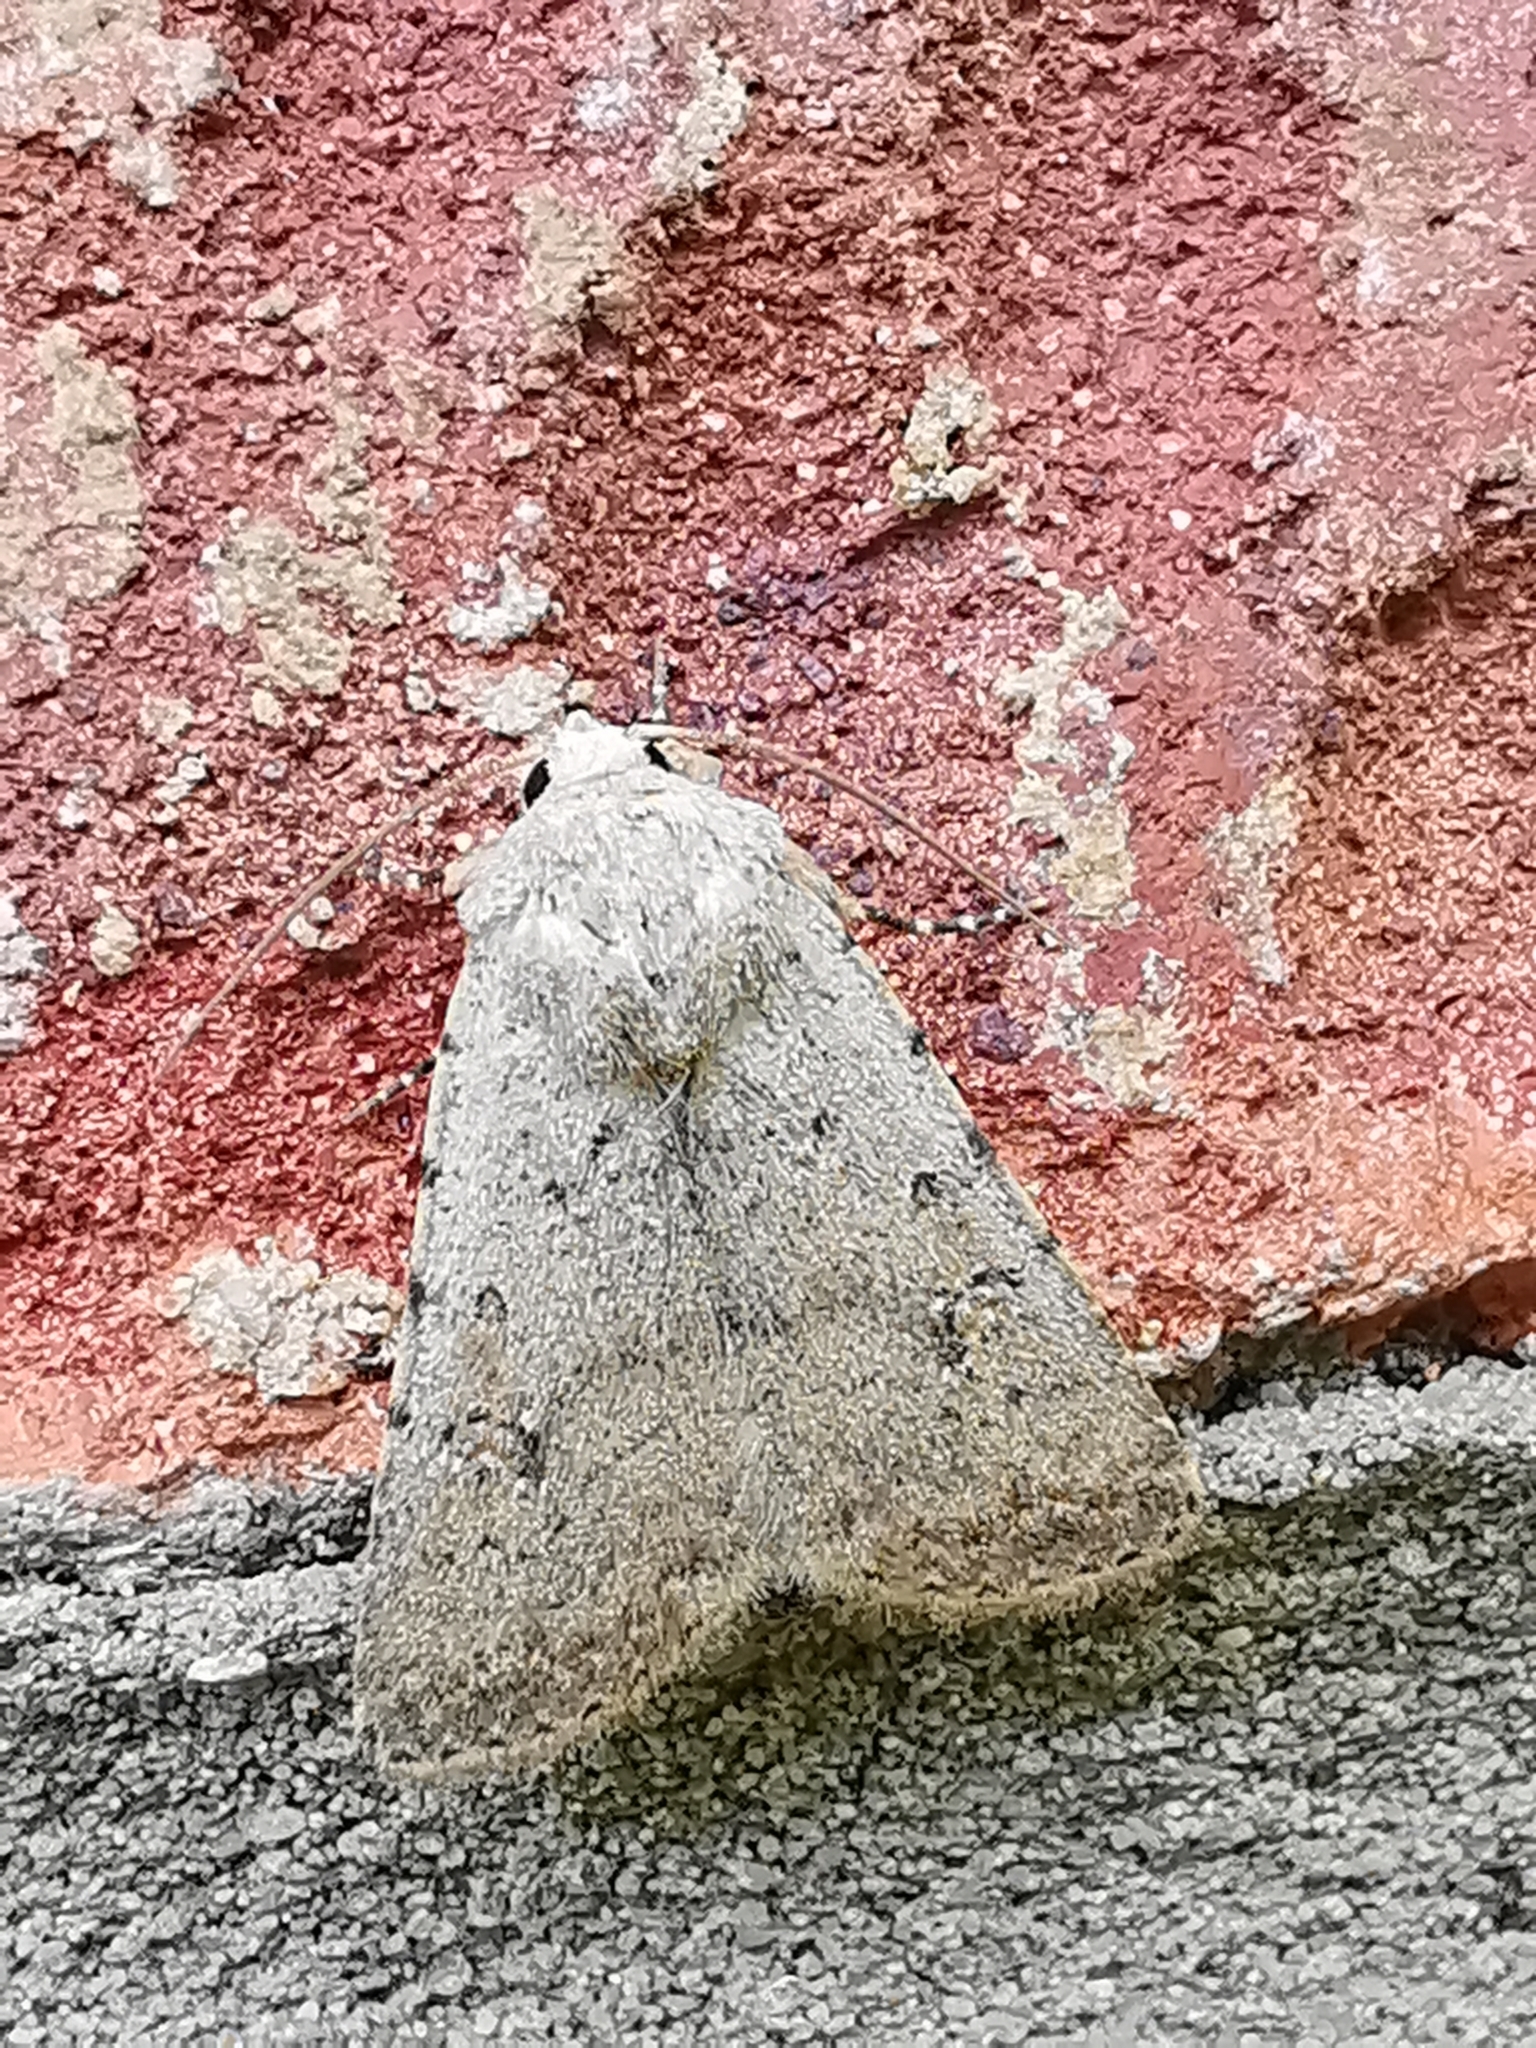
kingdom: Animalia
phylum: Arthropoda
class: Insecta
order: Lepidoptera
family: Noctuidae
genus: Caradrina
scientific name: Caradrina clavipalpis
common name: Pale mottled willow
